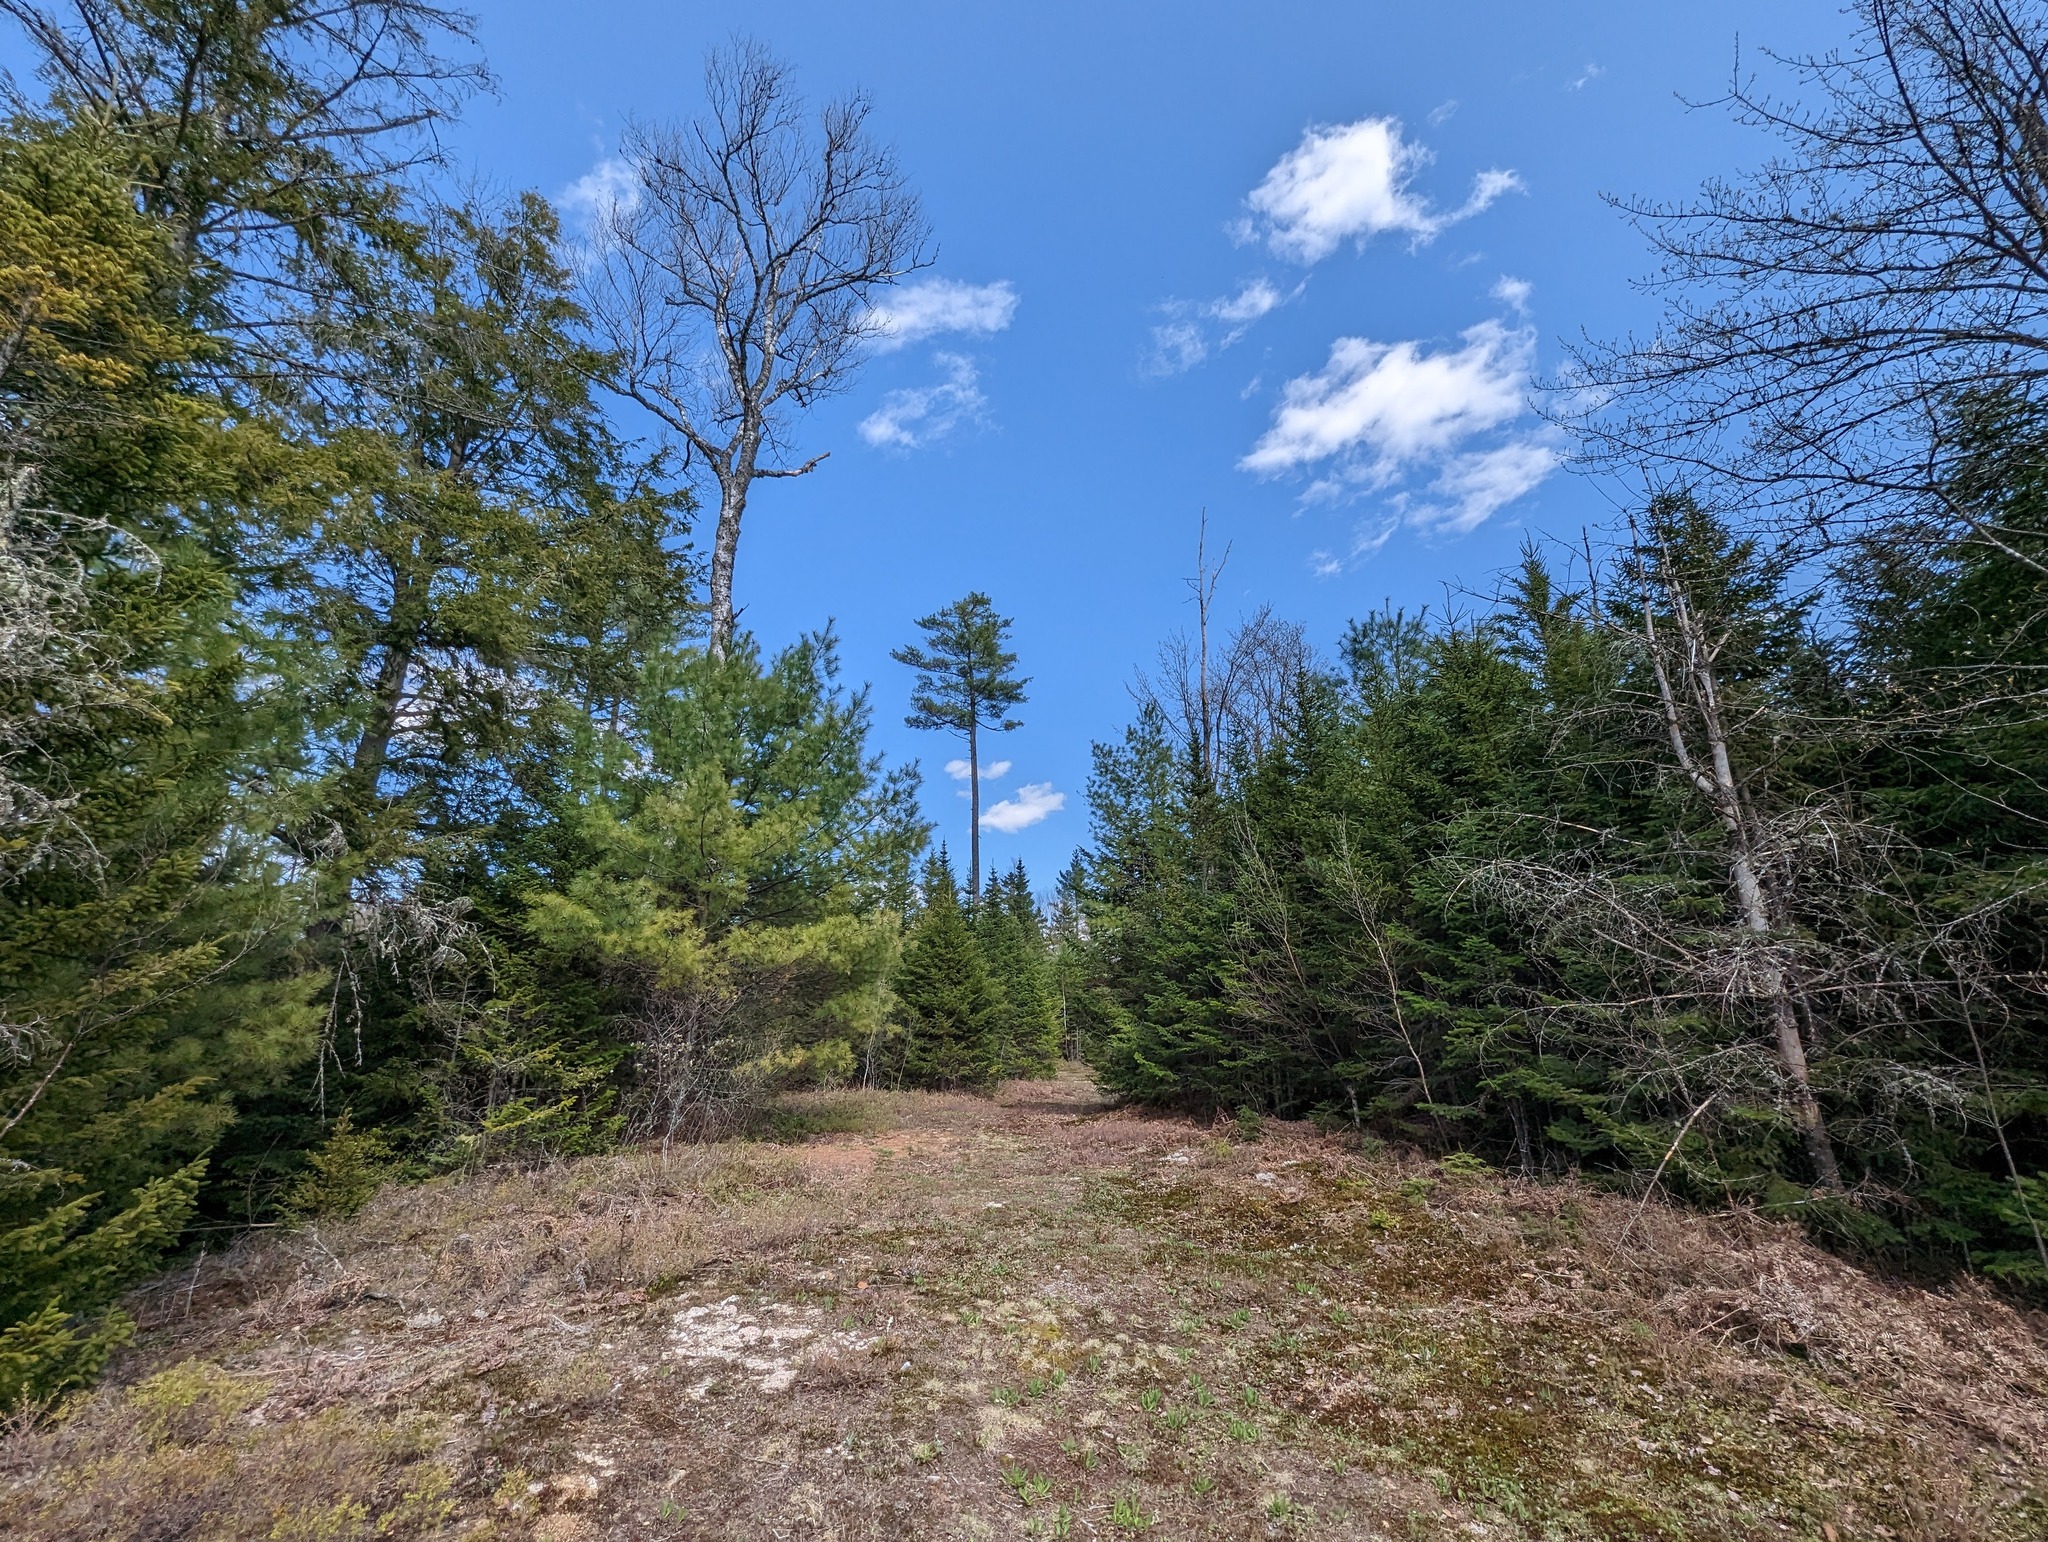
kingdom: Plantae
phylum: Tracheophyta
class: Pinopsida
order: Pinales
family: Pinaceae
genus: Pinus
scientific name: Pinus strobus
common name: Weymouth pine
